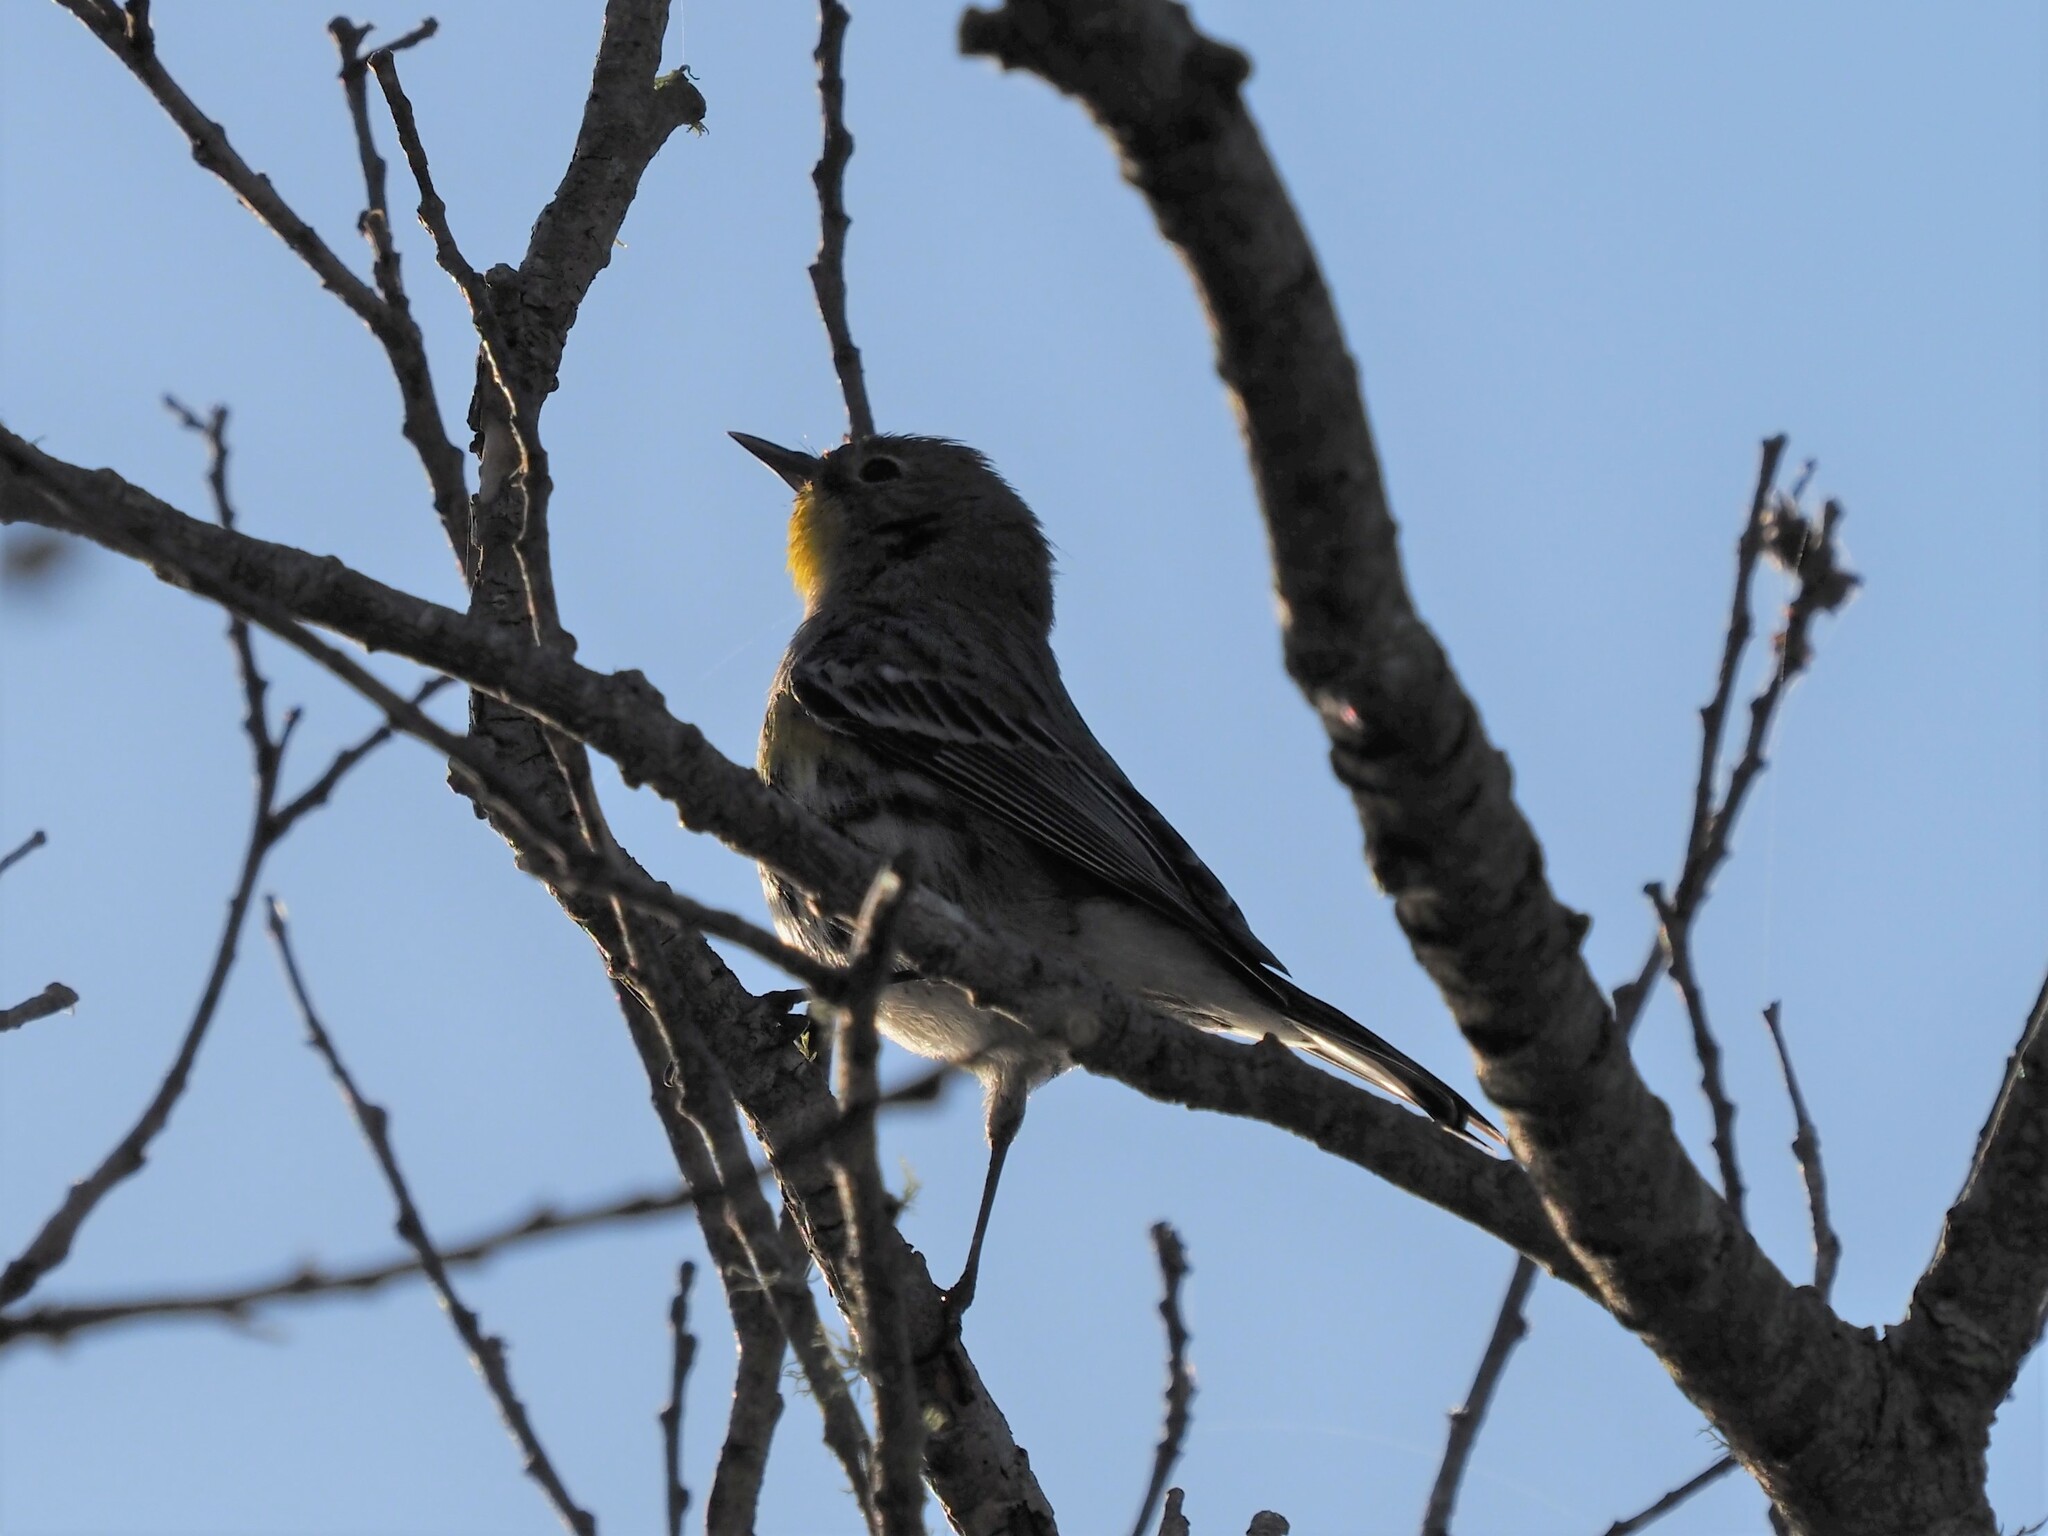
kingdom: Animalia
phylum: Chordata
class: Aves
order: Passeriformes
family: Parulidae
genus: Setophaga
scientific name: Setophaga coronata
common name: Myrtle warbler
